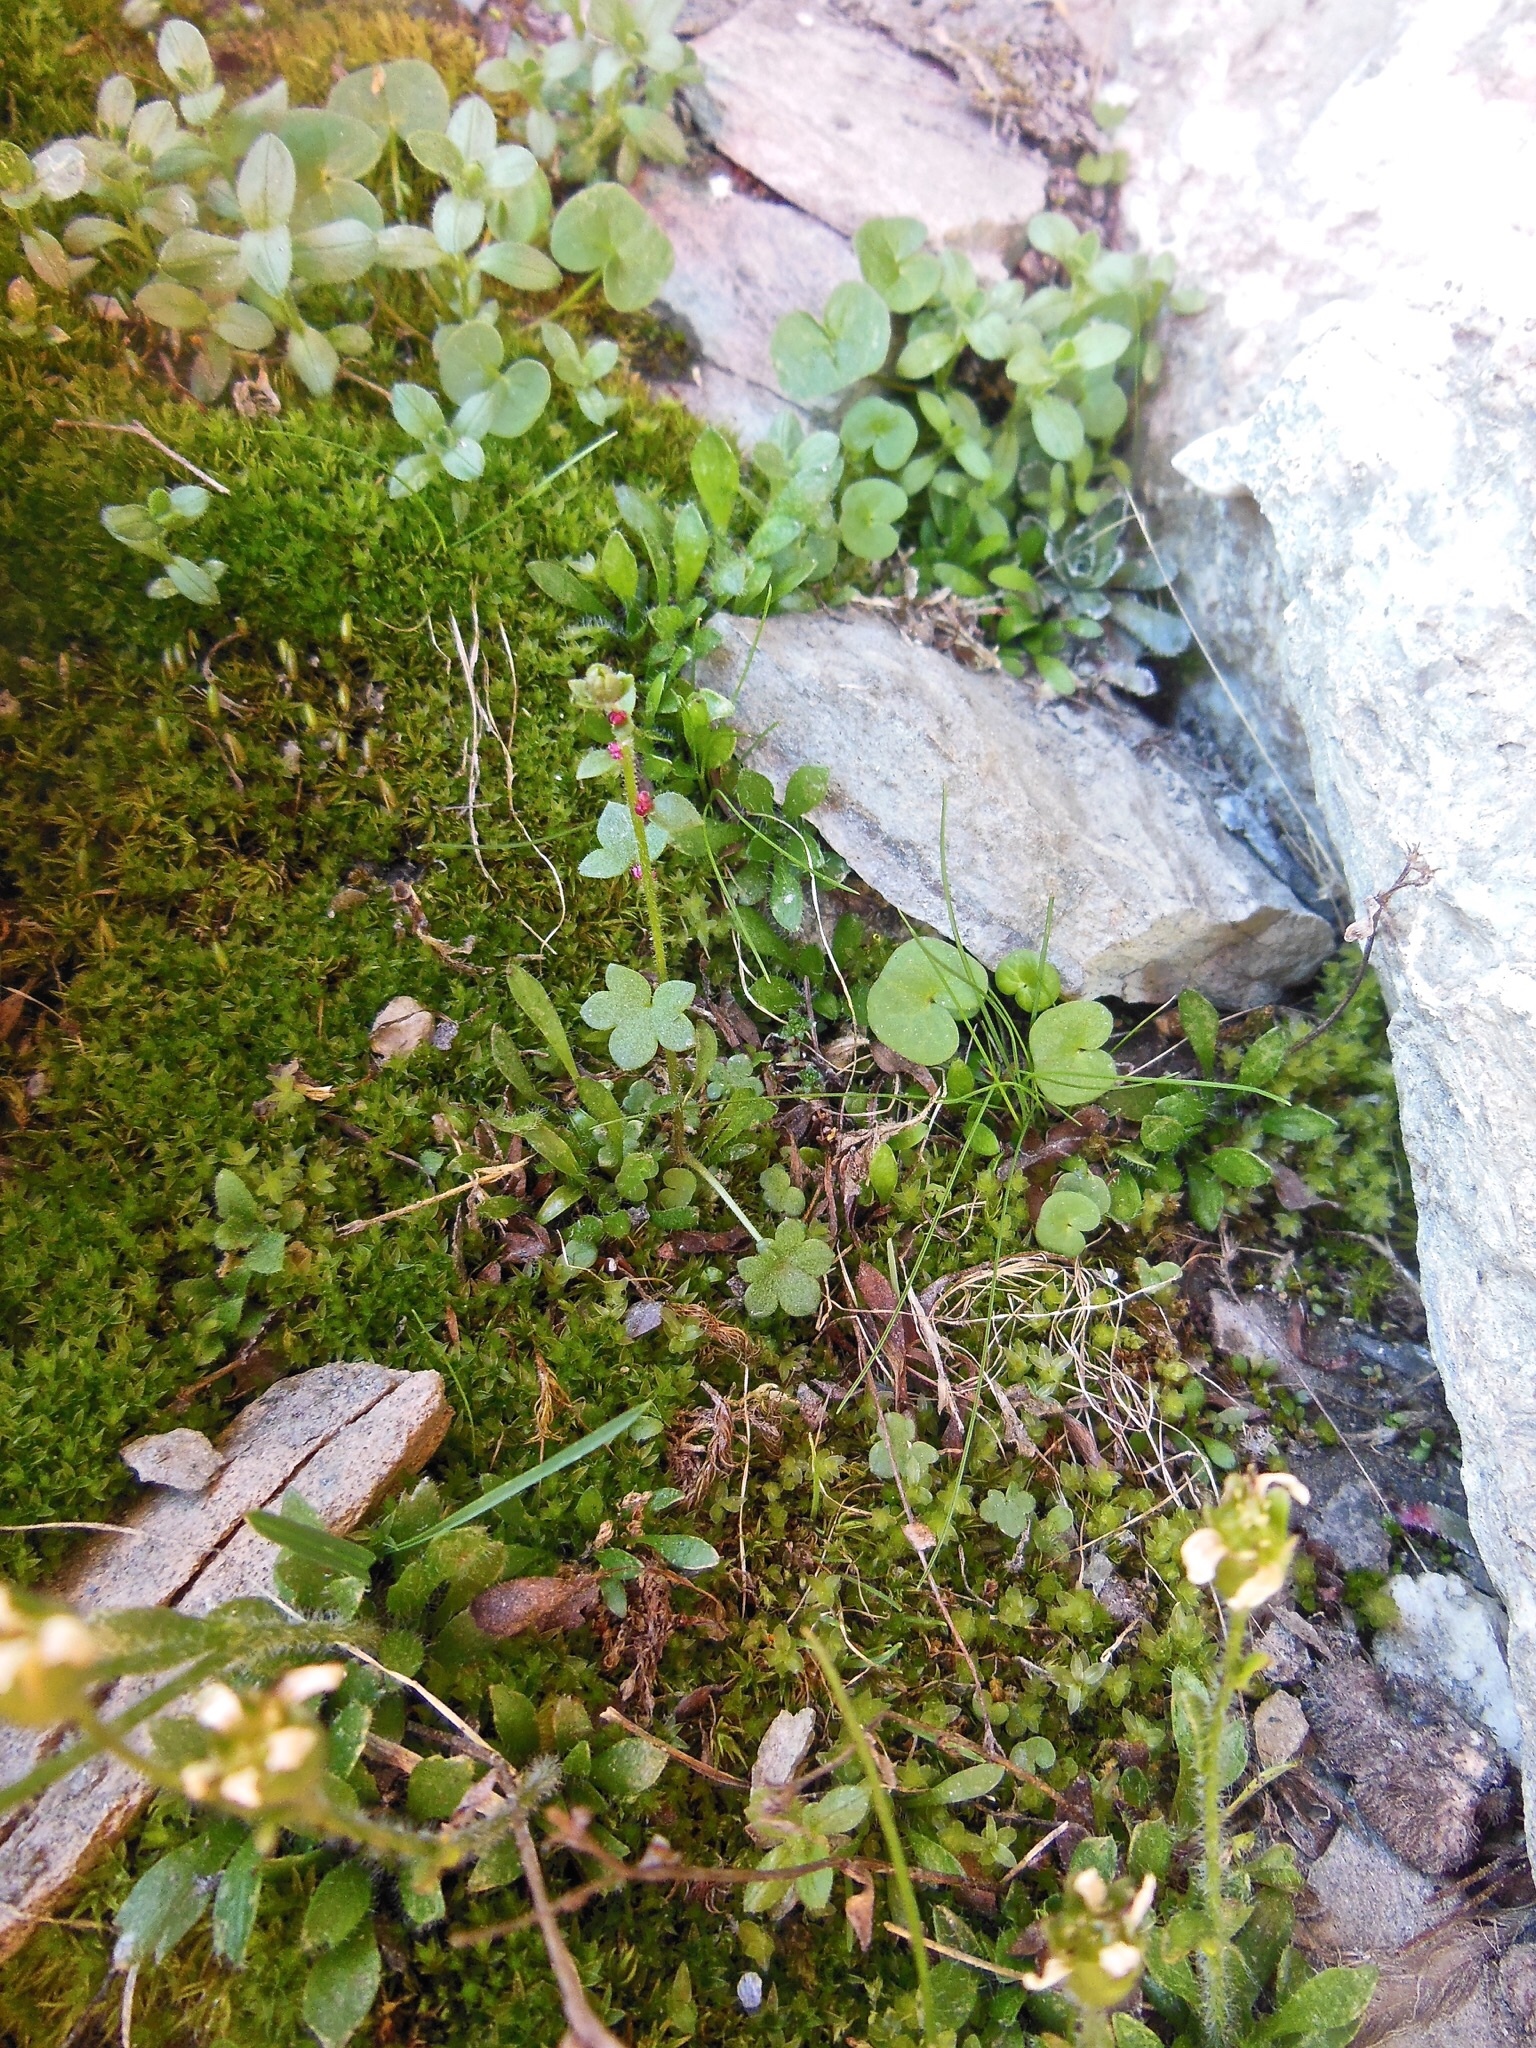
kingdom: Plantae
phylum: Tracheophyta
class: Magnoliopsida
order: Saxifragales
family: Saxifragaceae
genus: Saxifraga
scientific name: Saxifraga cernua
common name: Drooping saxifrage
